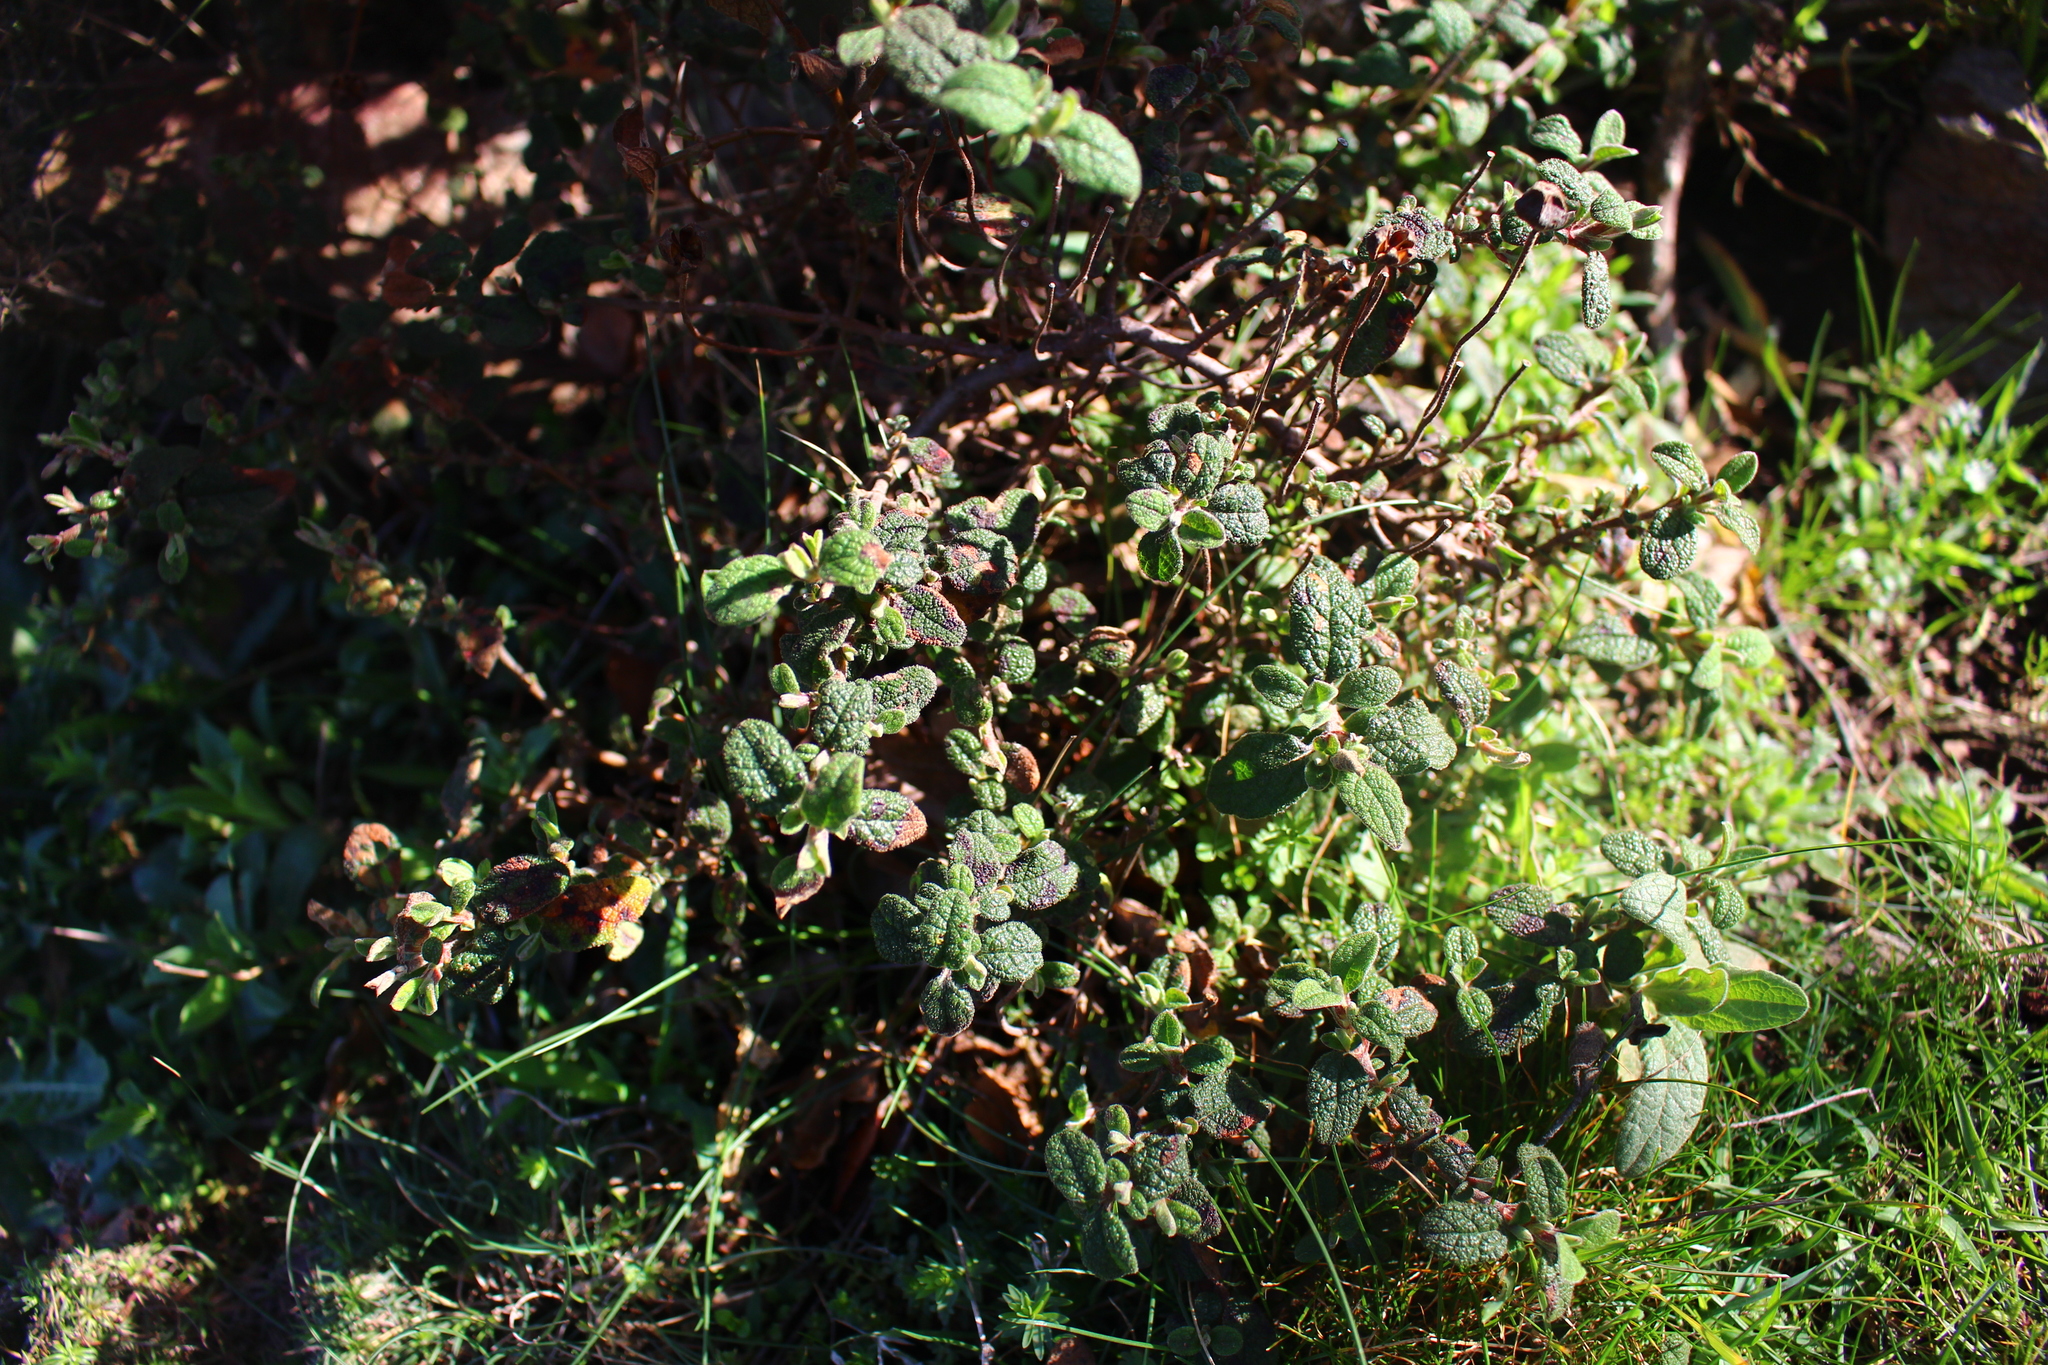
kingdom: Plantae
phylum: Tracheophyta
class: Magnoliopsida
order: Malvales
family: Cistaceae
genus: Cistus
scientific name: Cistus salviifolius
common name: Salvia cistus
